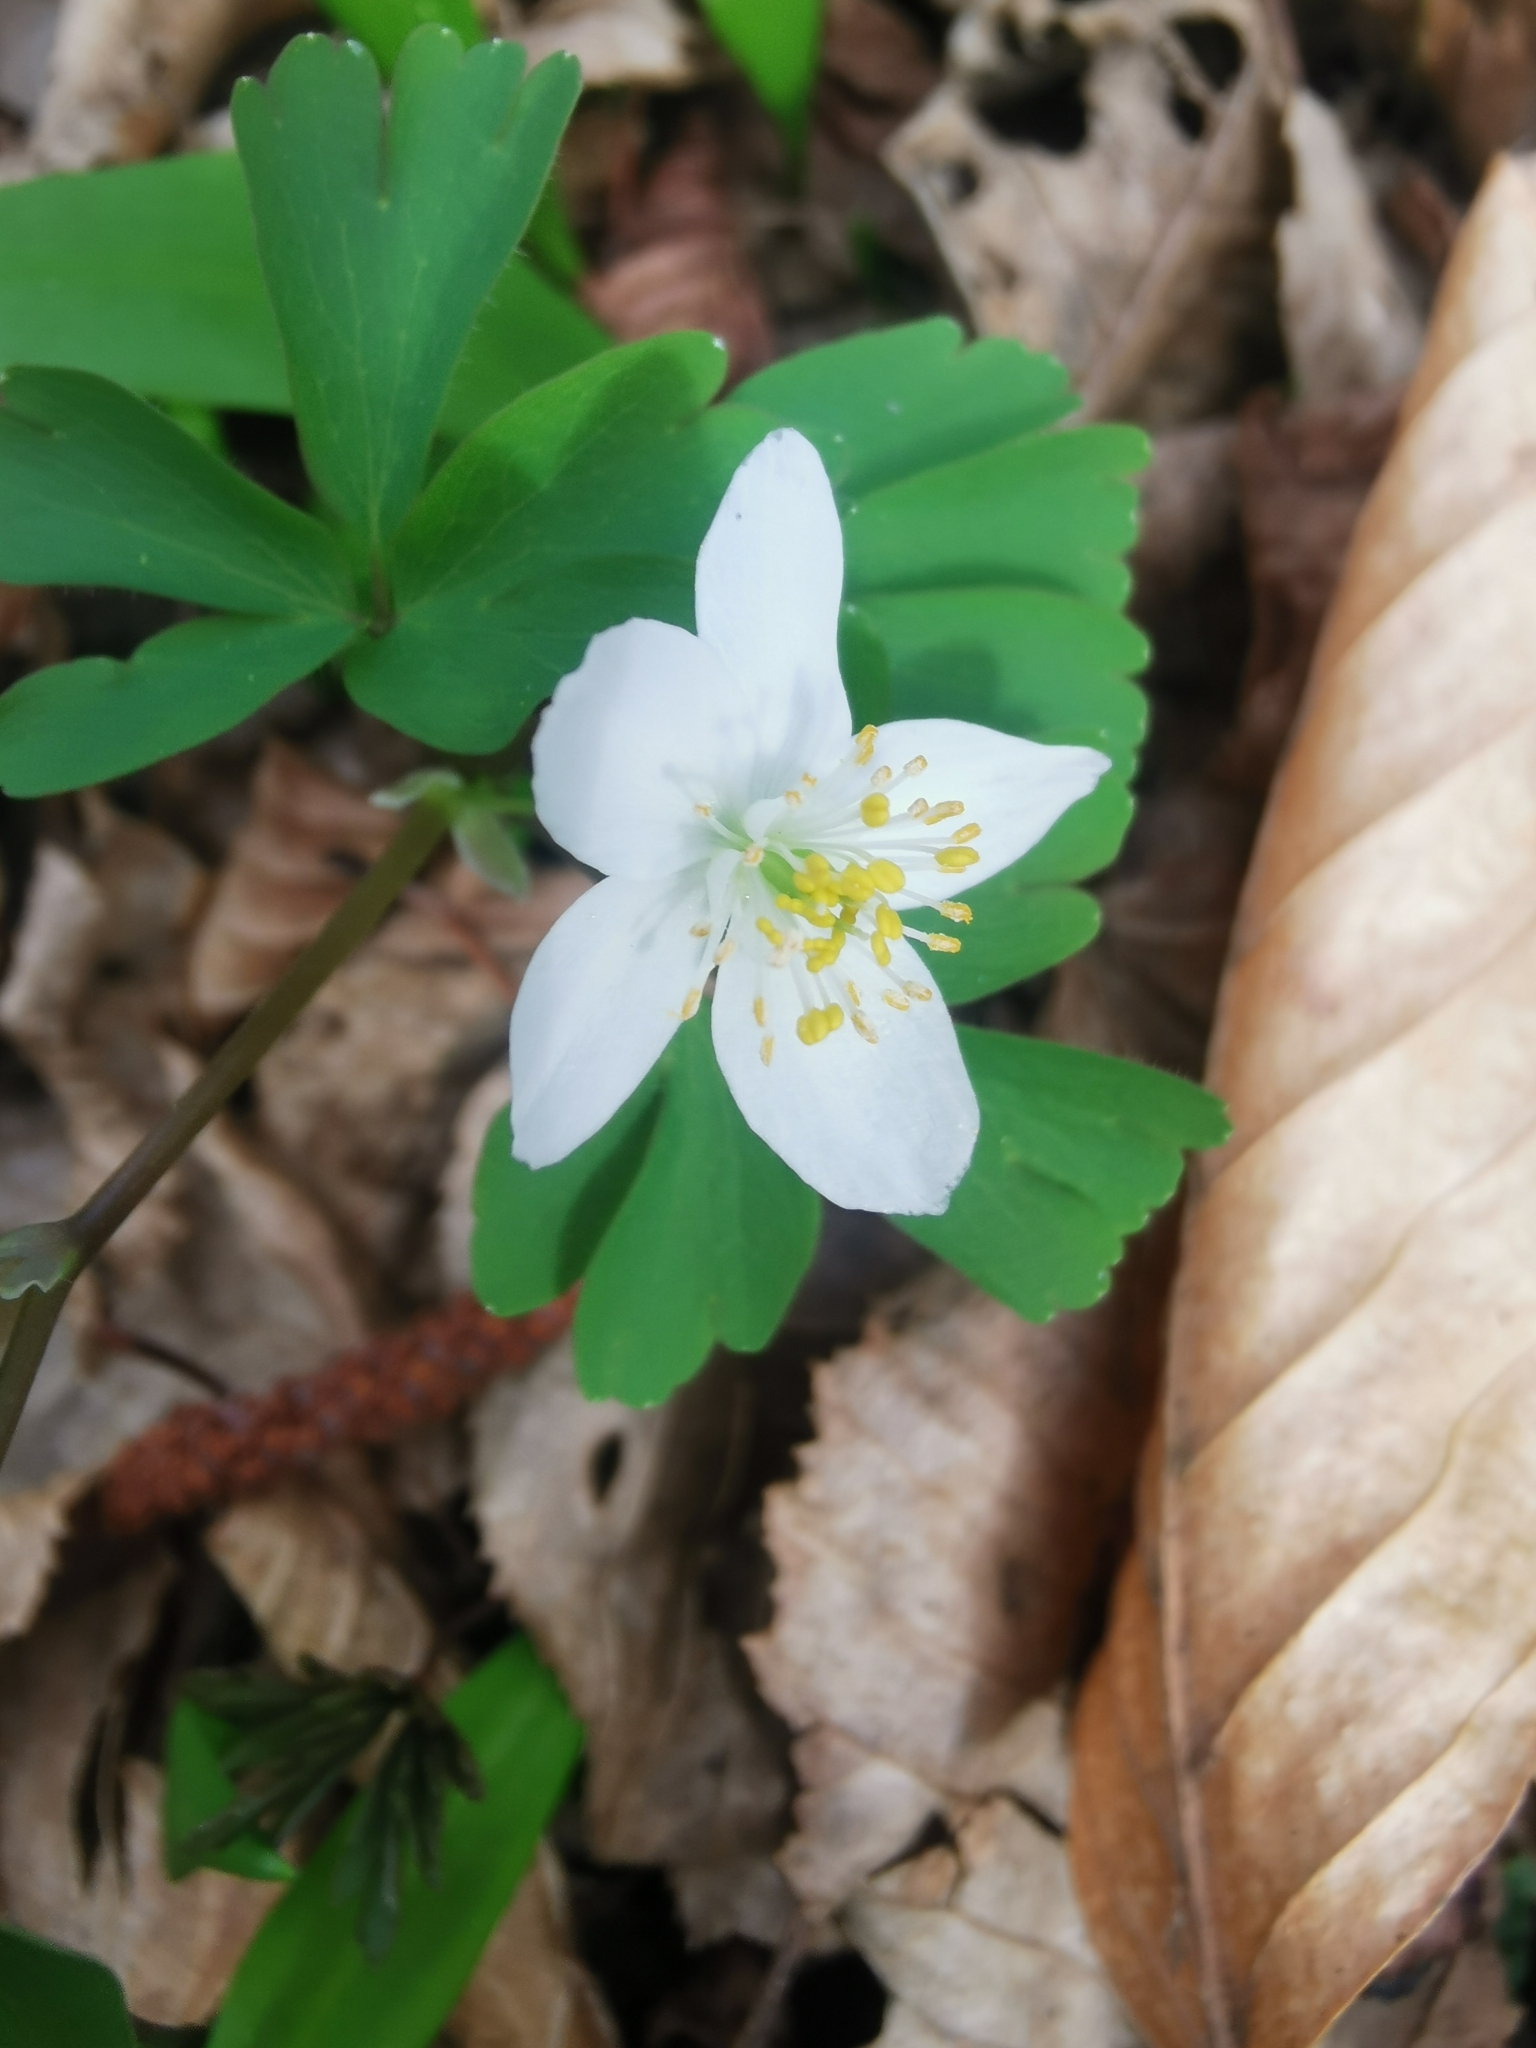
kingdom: Plantae
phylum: Tracheophyta
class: Magnoliopsida
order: Ranunculales
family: Ranunculaceae
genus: Isopyrum
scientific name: Isopyrum thalictroides
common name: Isopyrum
